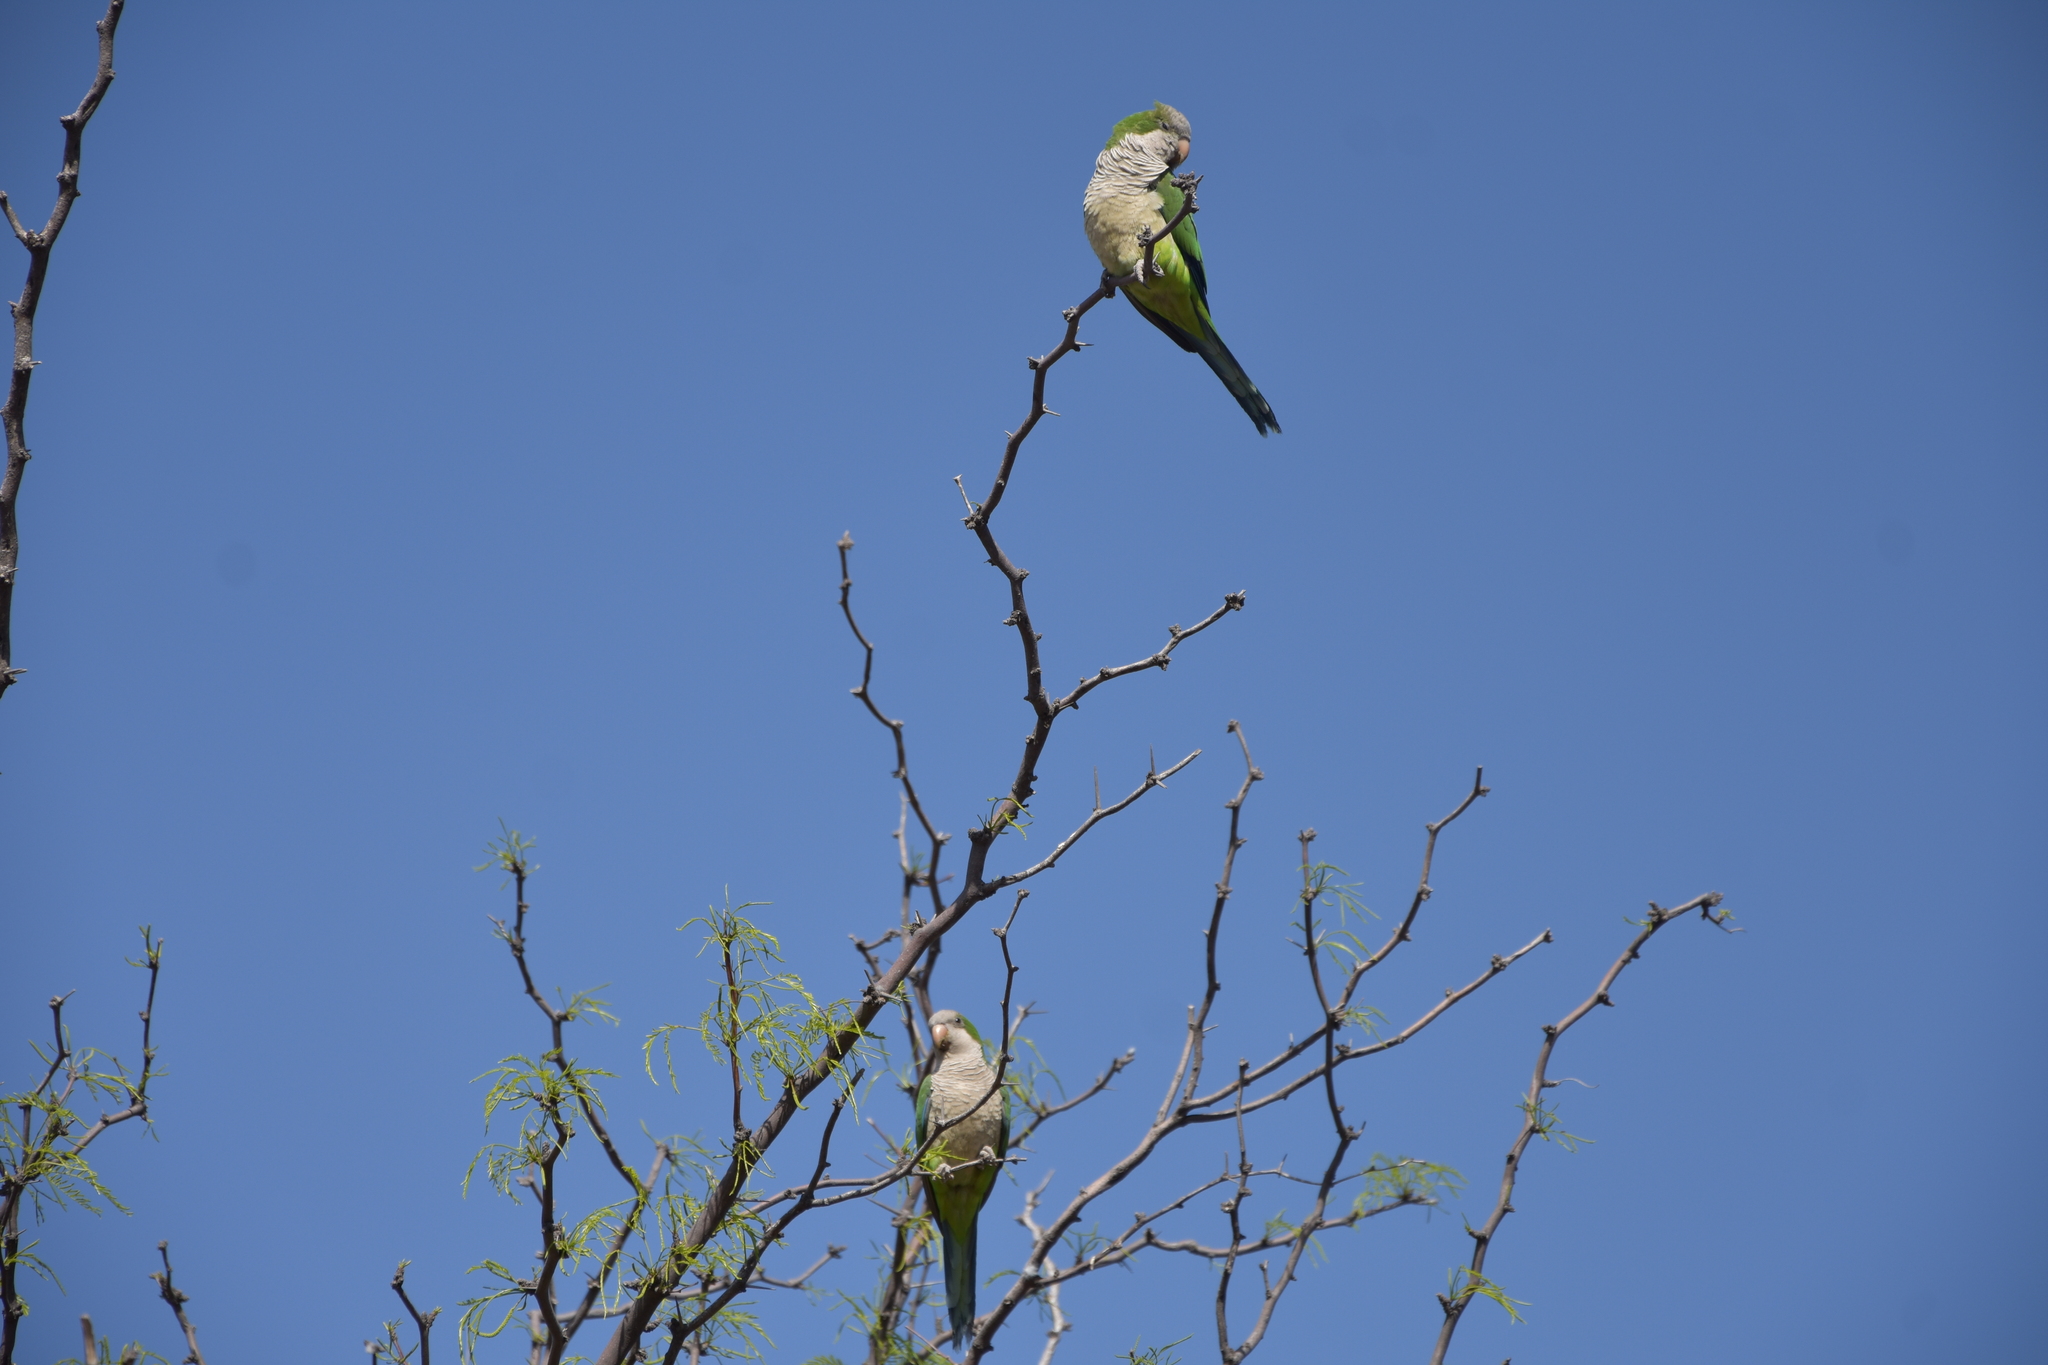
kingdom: Animalia
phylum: Chordata
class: Aves
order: Psittaciformes
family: Psittacidae
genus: Myiopsitta
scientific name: Myiopsitta monachus
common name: Monk parakeet
